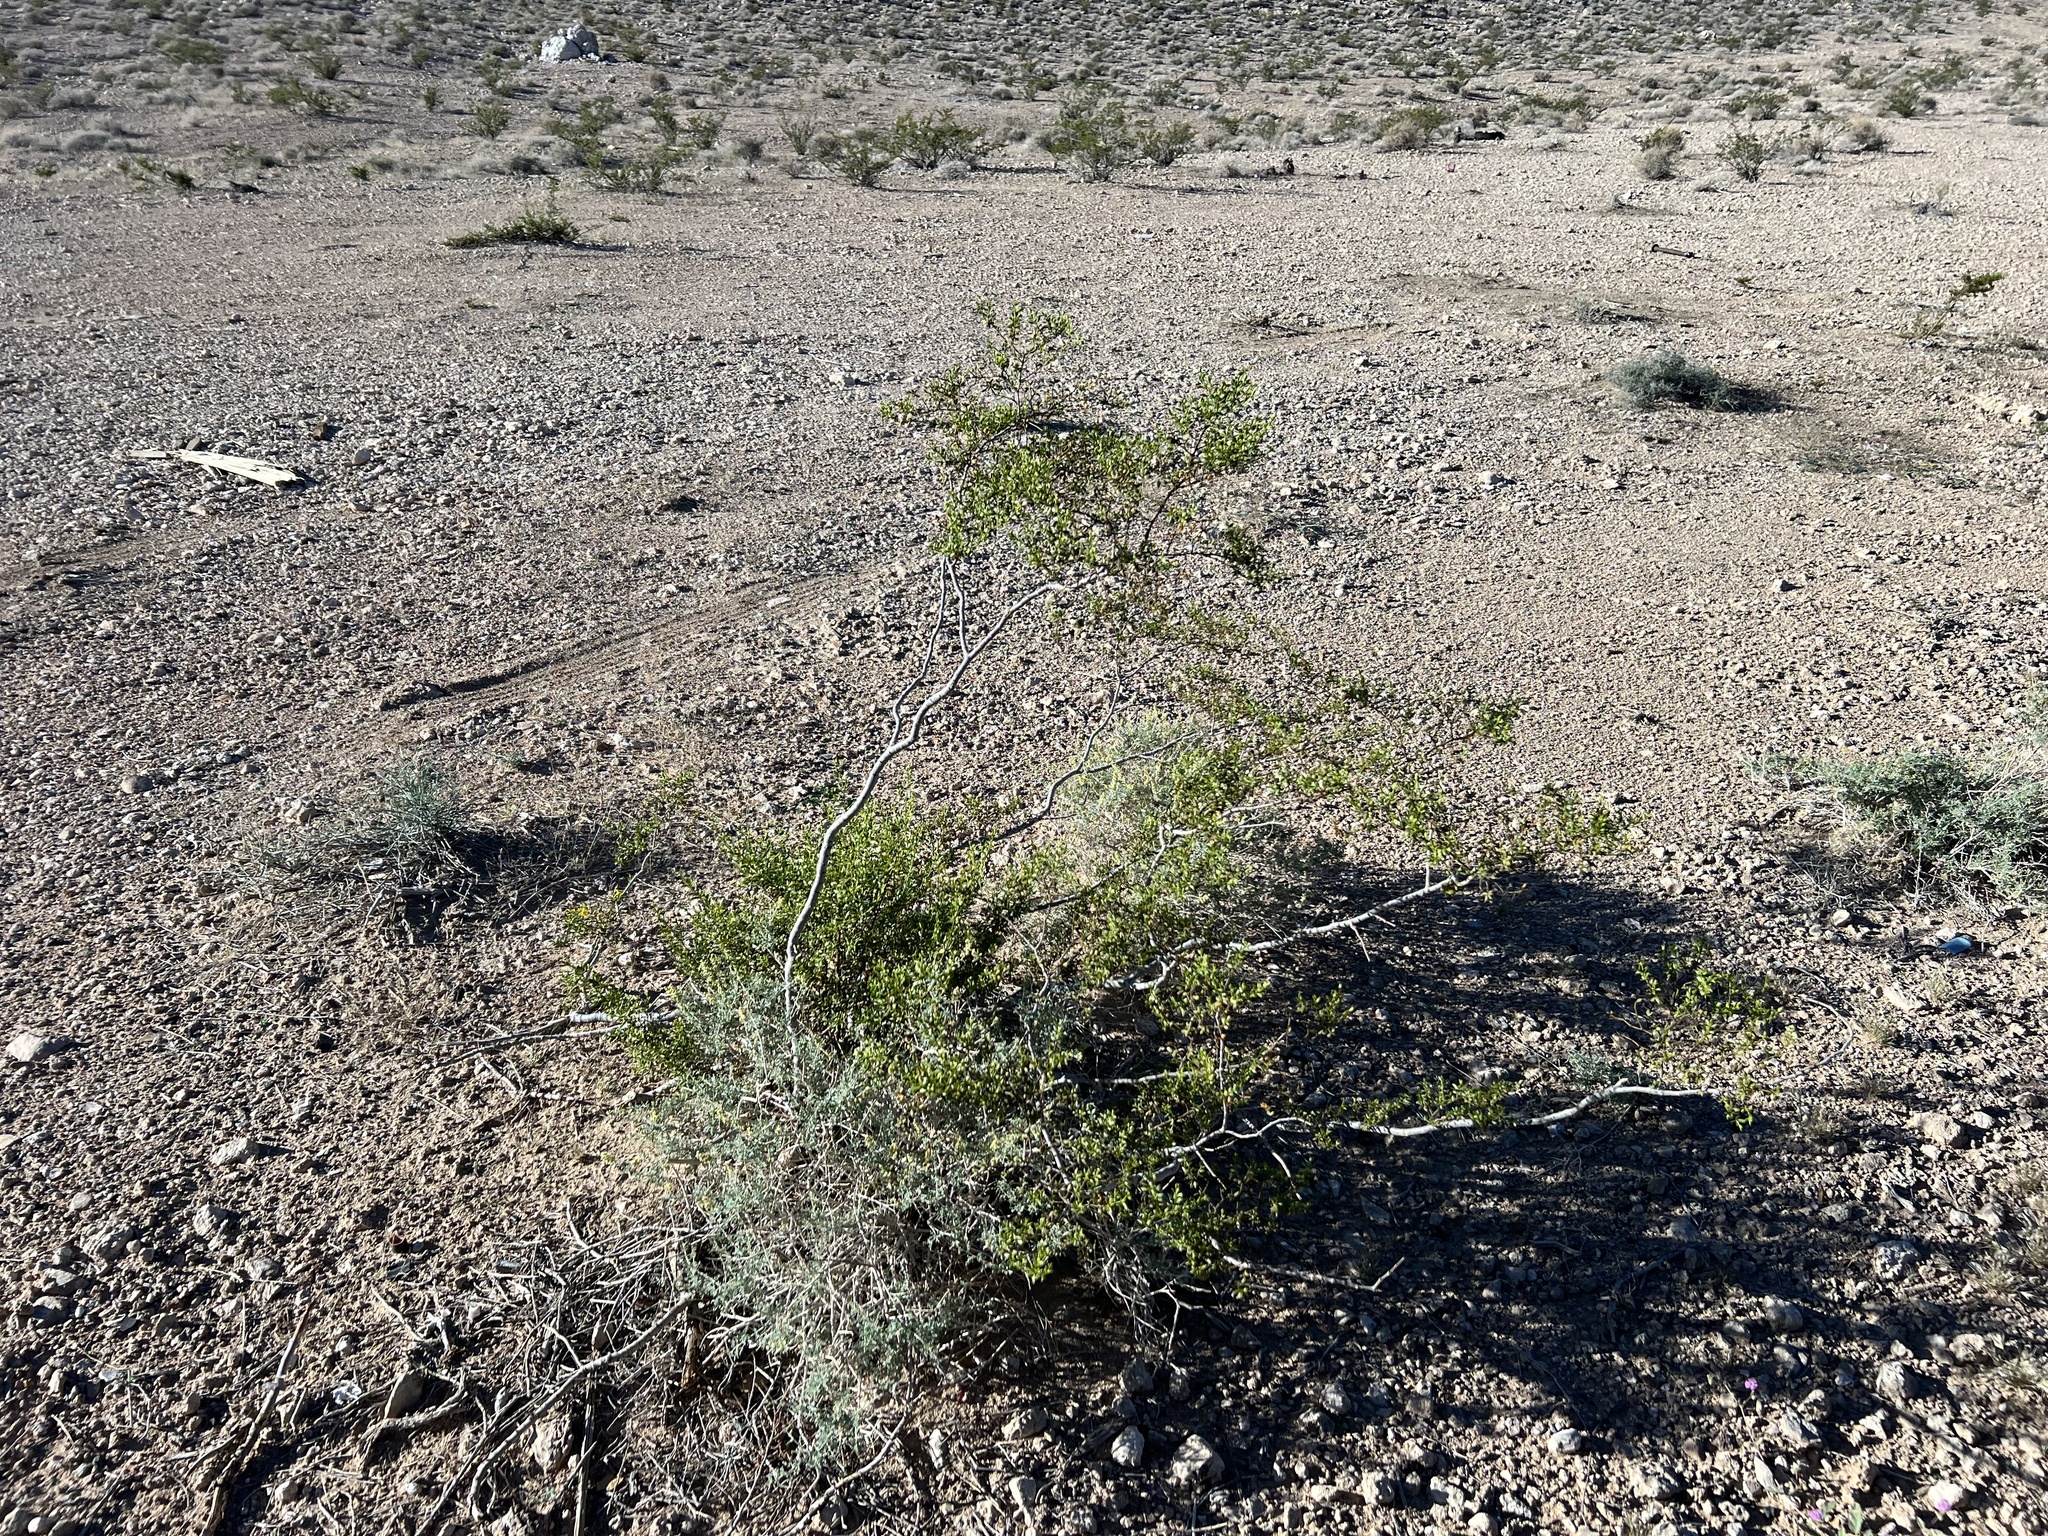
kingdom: Plantae
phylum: Tracheophyta
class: Magnoliopsida
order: Zygophyllales
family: Zygophyllaceae
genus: Larrea
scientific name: Larrea tridentata
